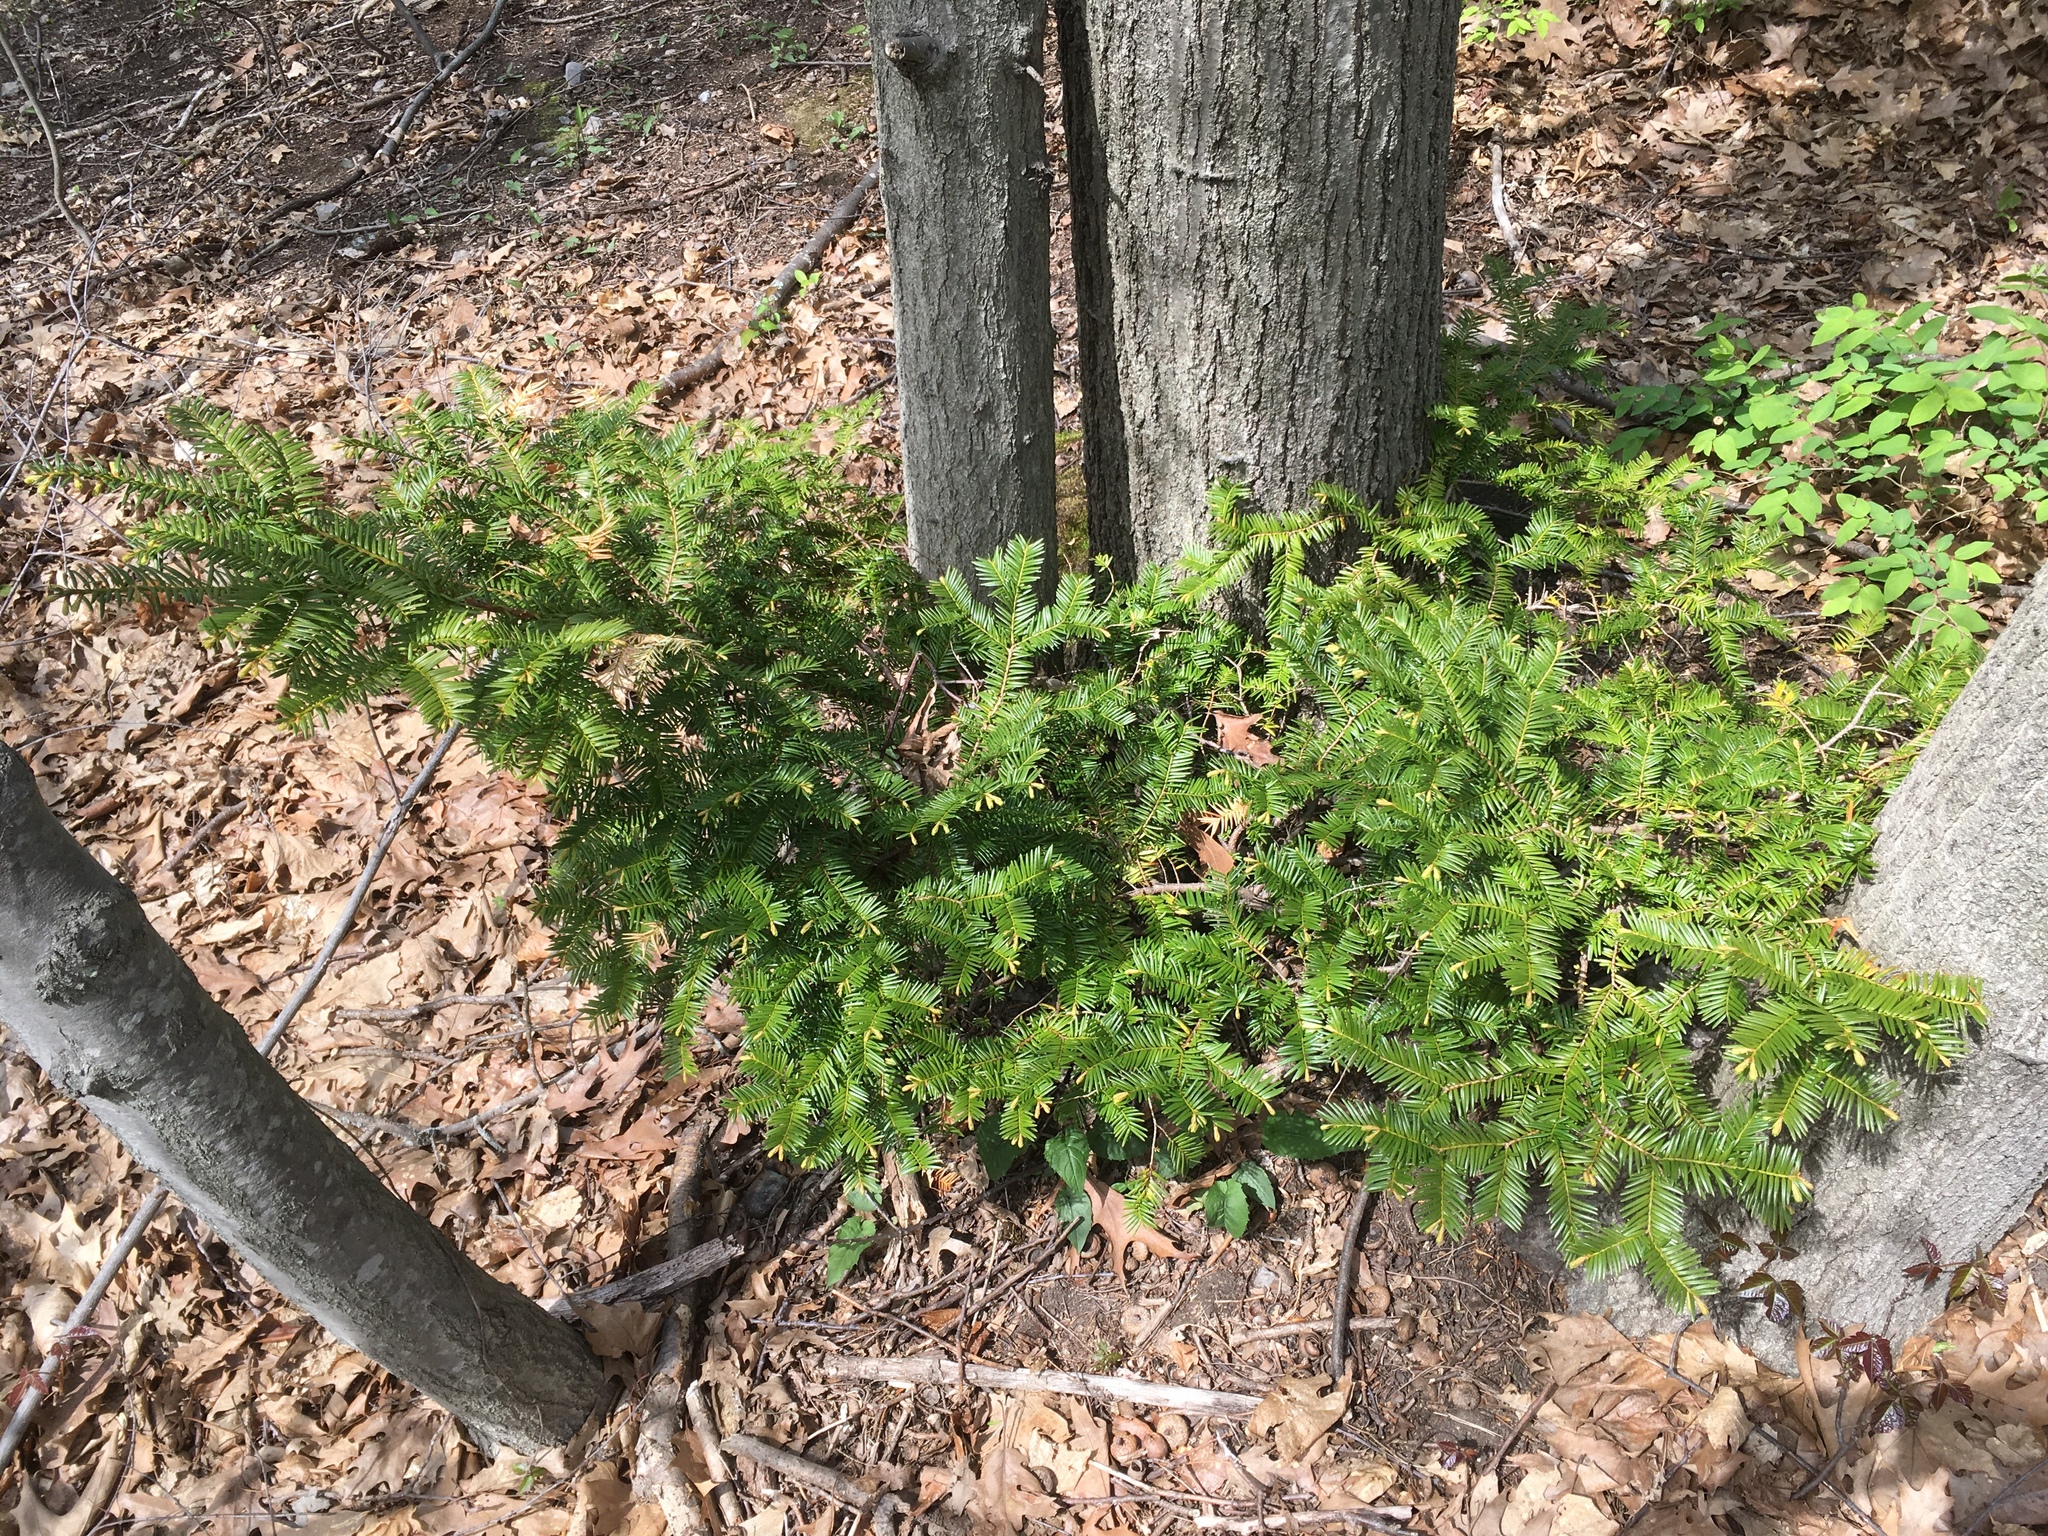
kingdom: Plantae
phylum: Tracheophyta
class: Pinopsida
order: Pinales
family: Taxaceae
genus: Taxus
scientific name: Taxus canadensis
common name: American yew
